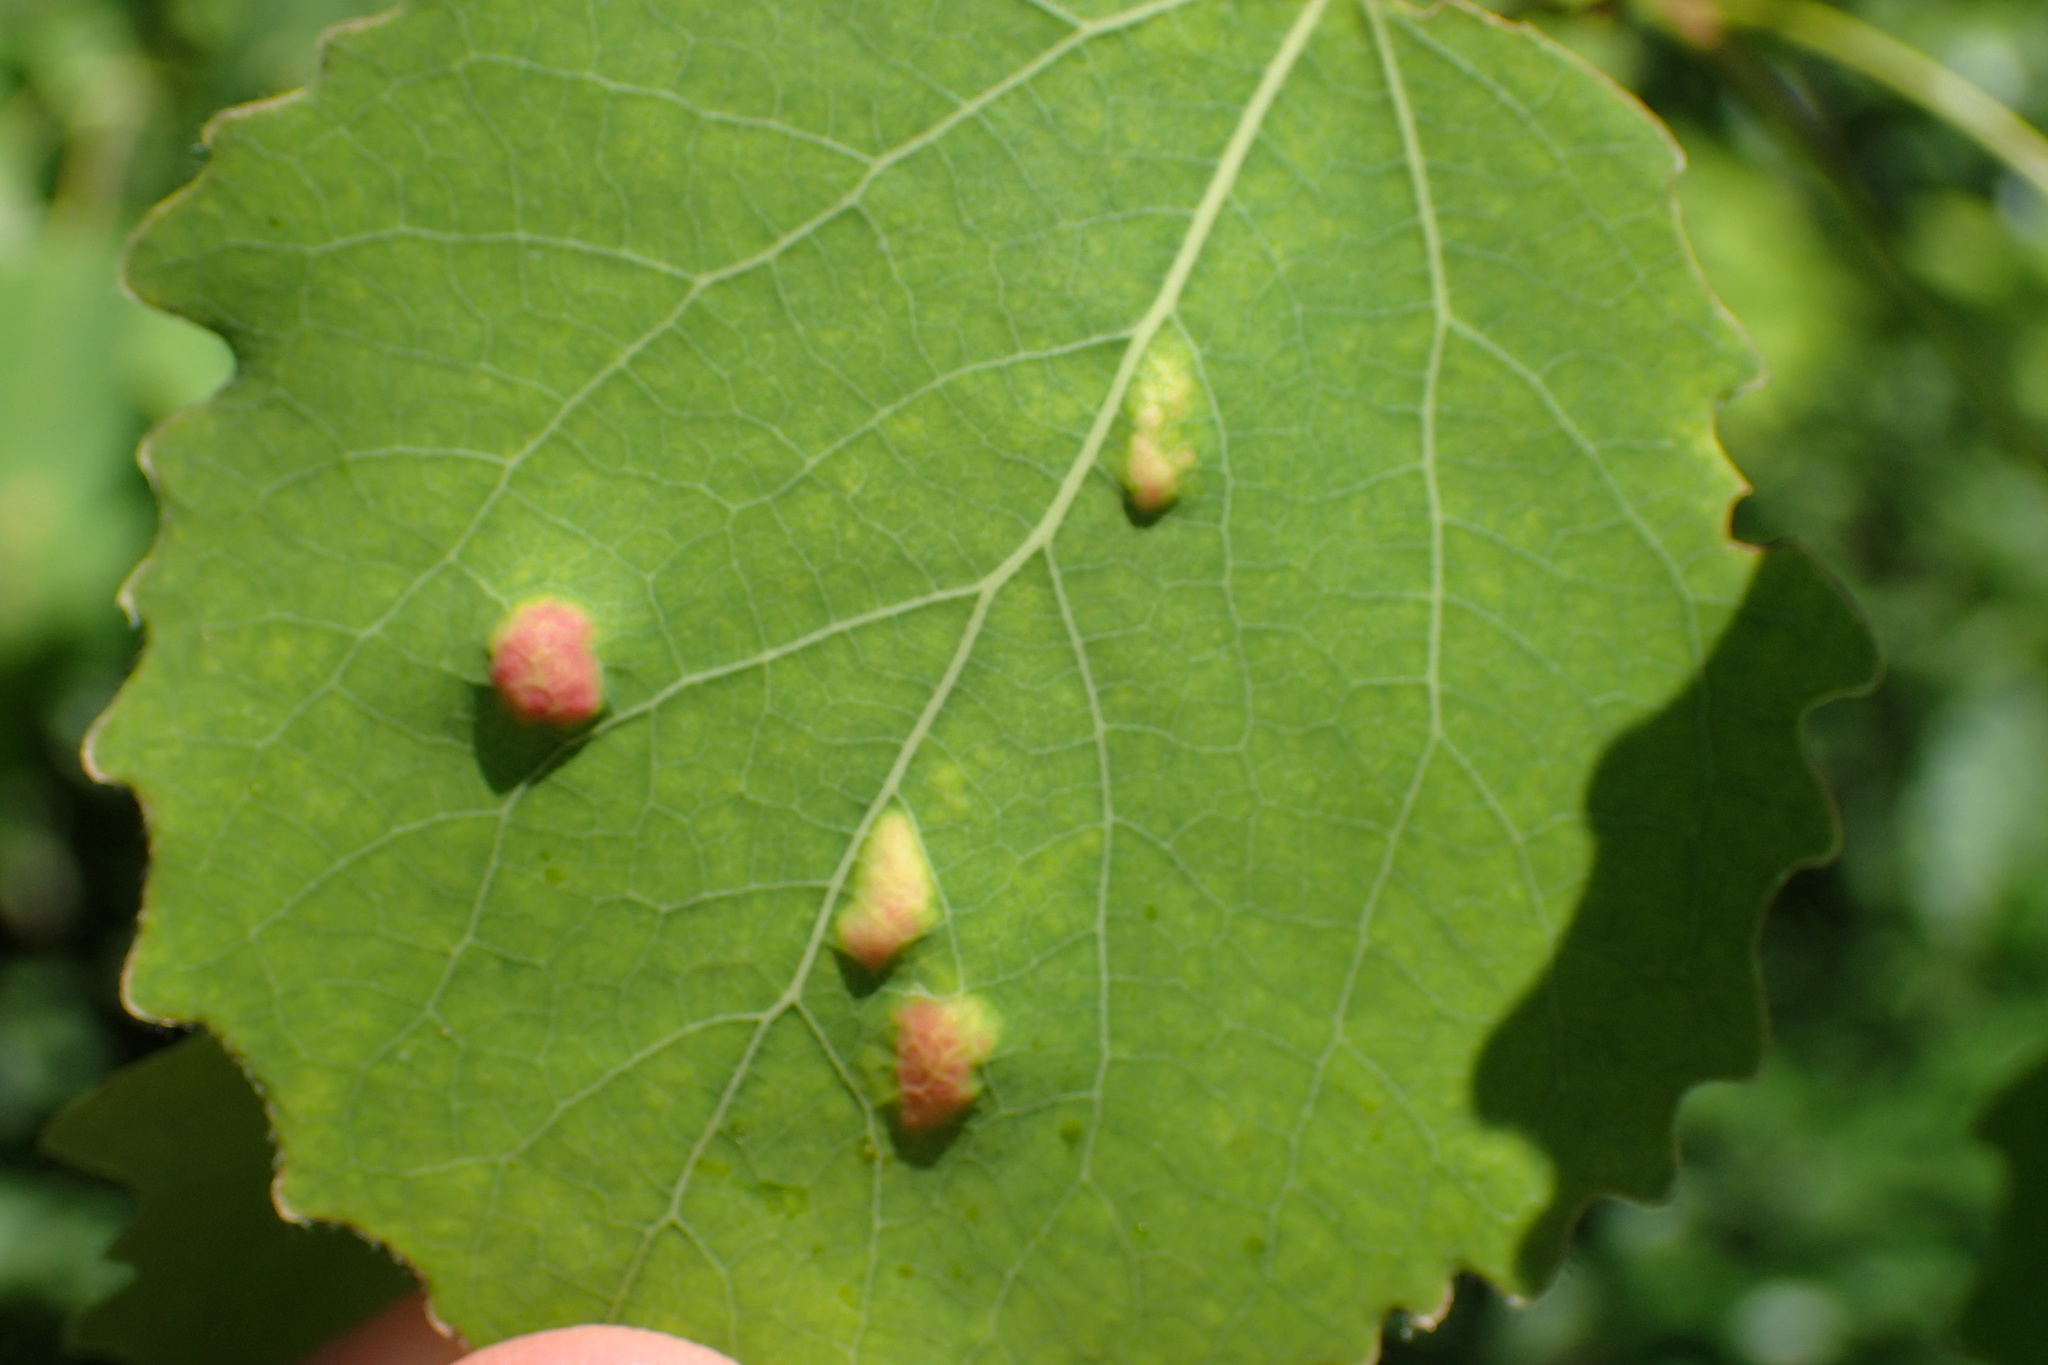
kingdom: Animalia
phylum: Arthropoda
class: Arachnida
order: Trombidiformes
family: Eriophyidae
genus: Phyllocoptes
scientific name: Phyllocoptes populi
